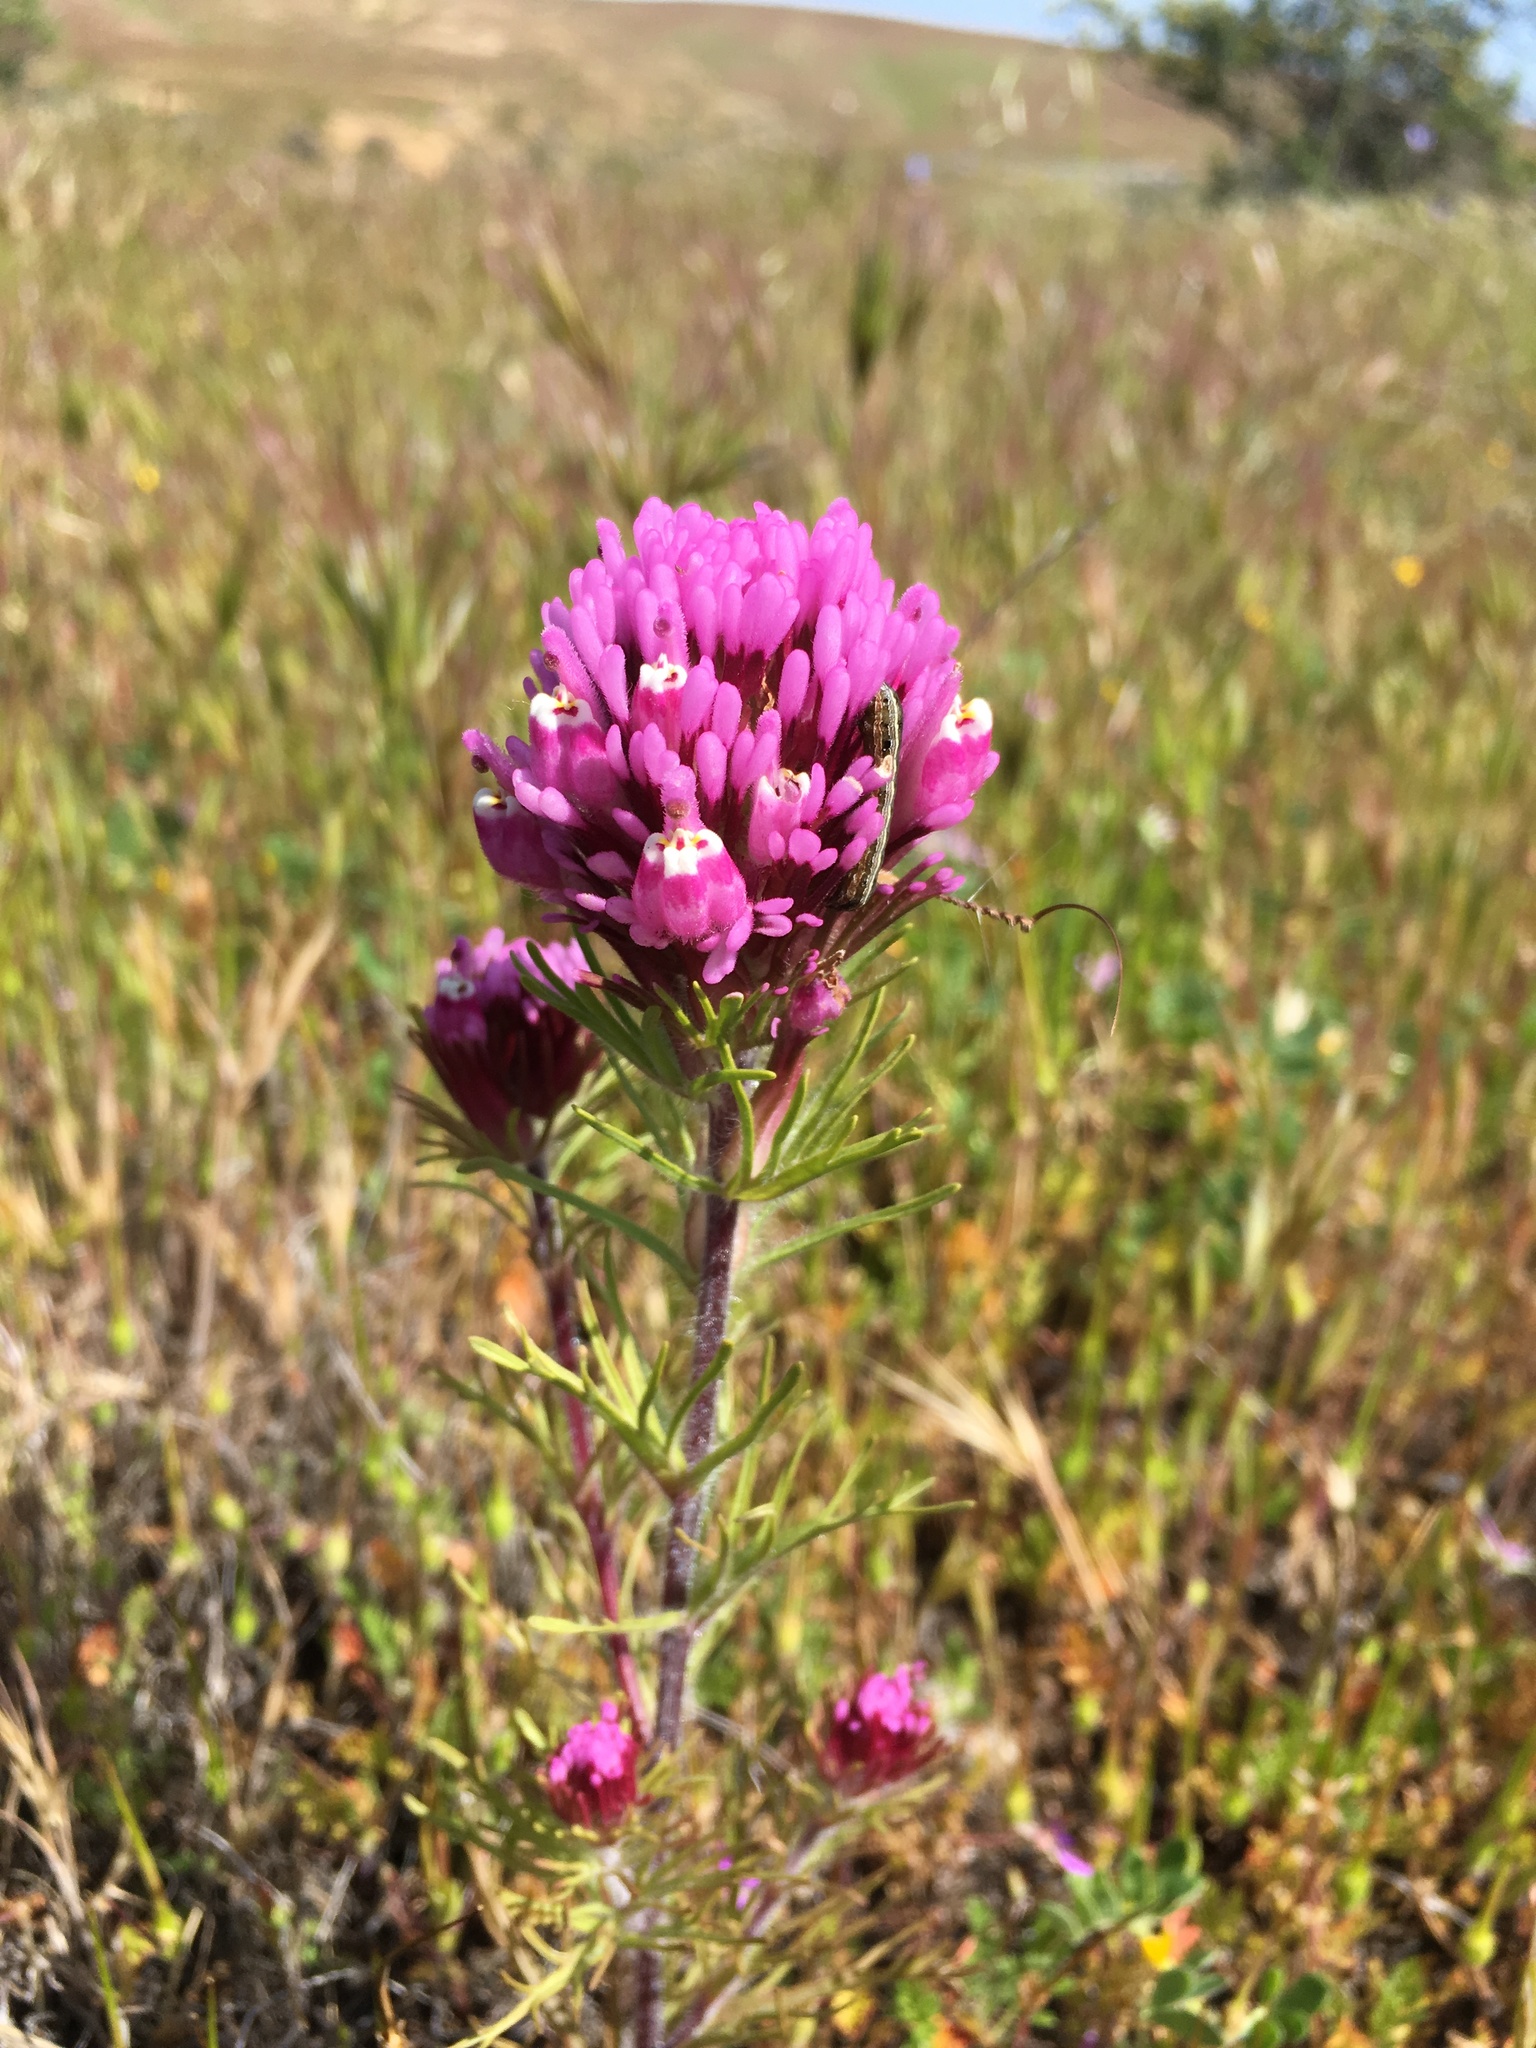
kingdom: Plantae
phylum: Tracheophyta
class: Magnoliopsida
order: Lamiales
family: Orobanchaceae
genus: Castilleja
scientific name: Castilleja exserta
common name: Purple owl-clover
